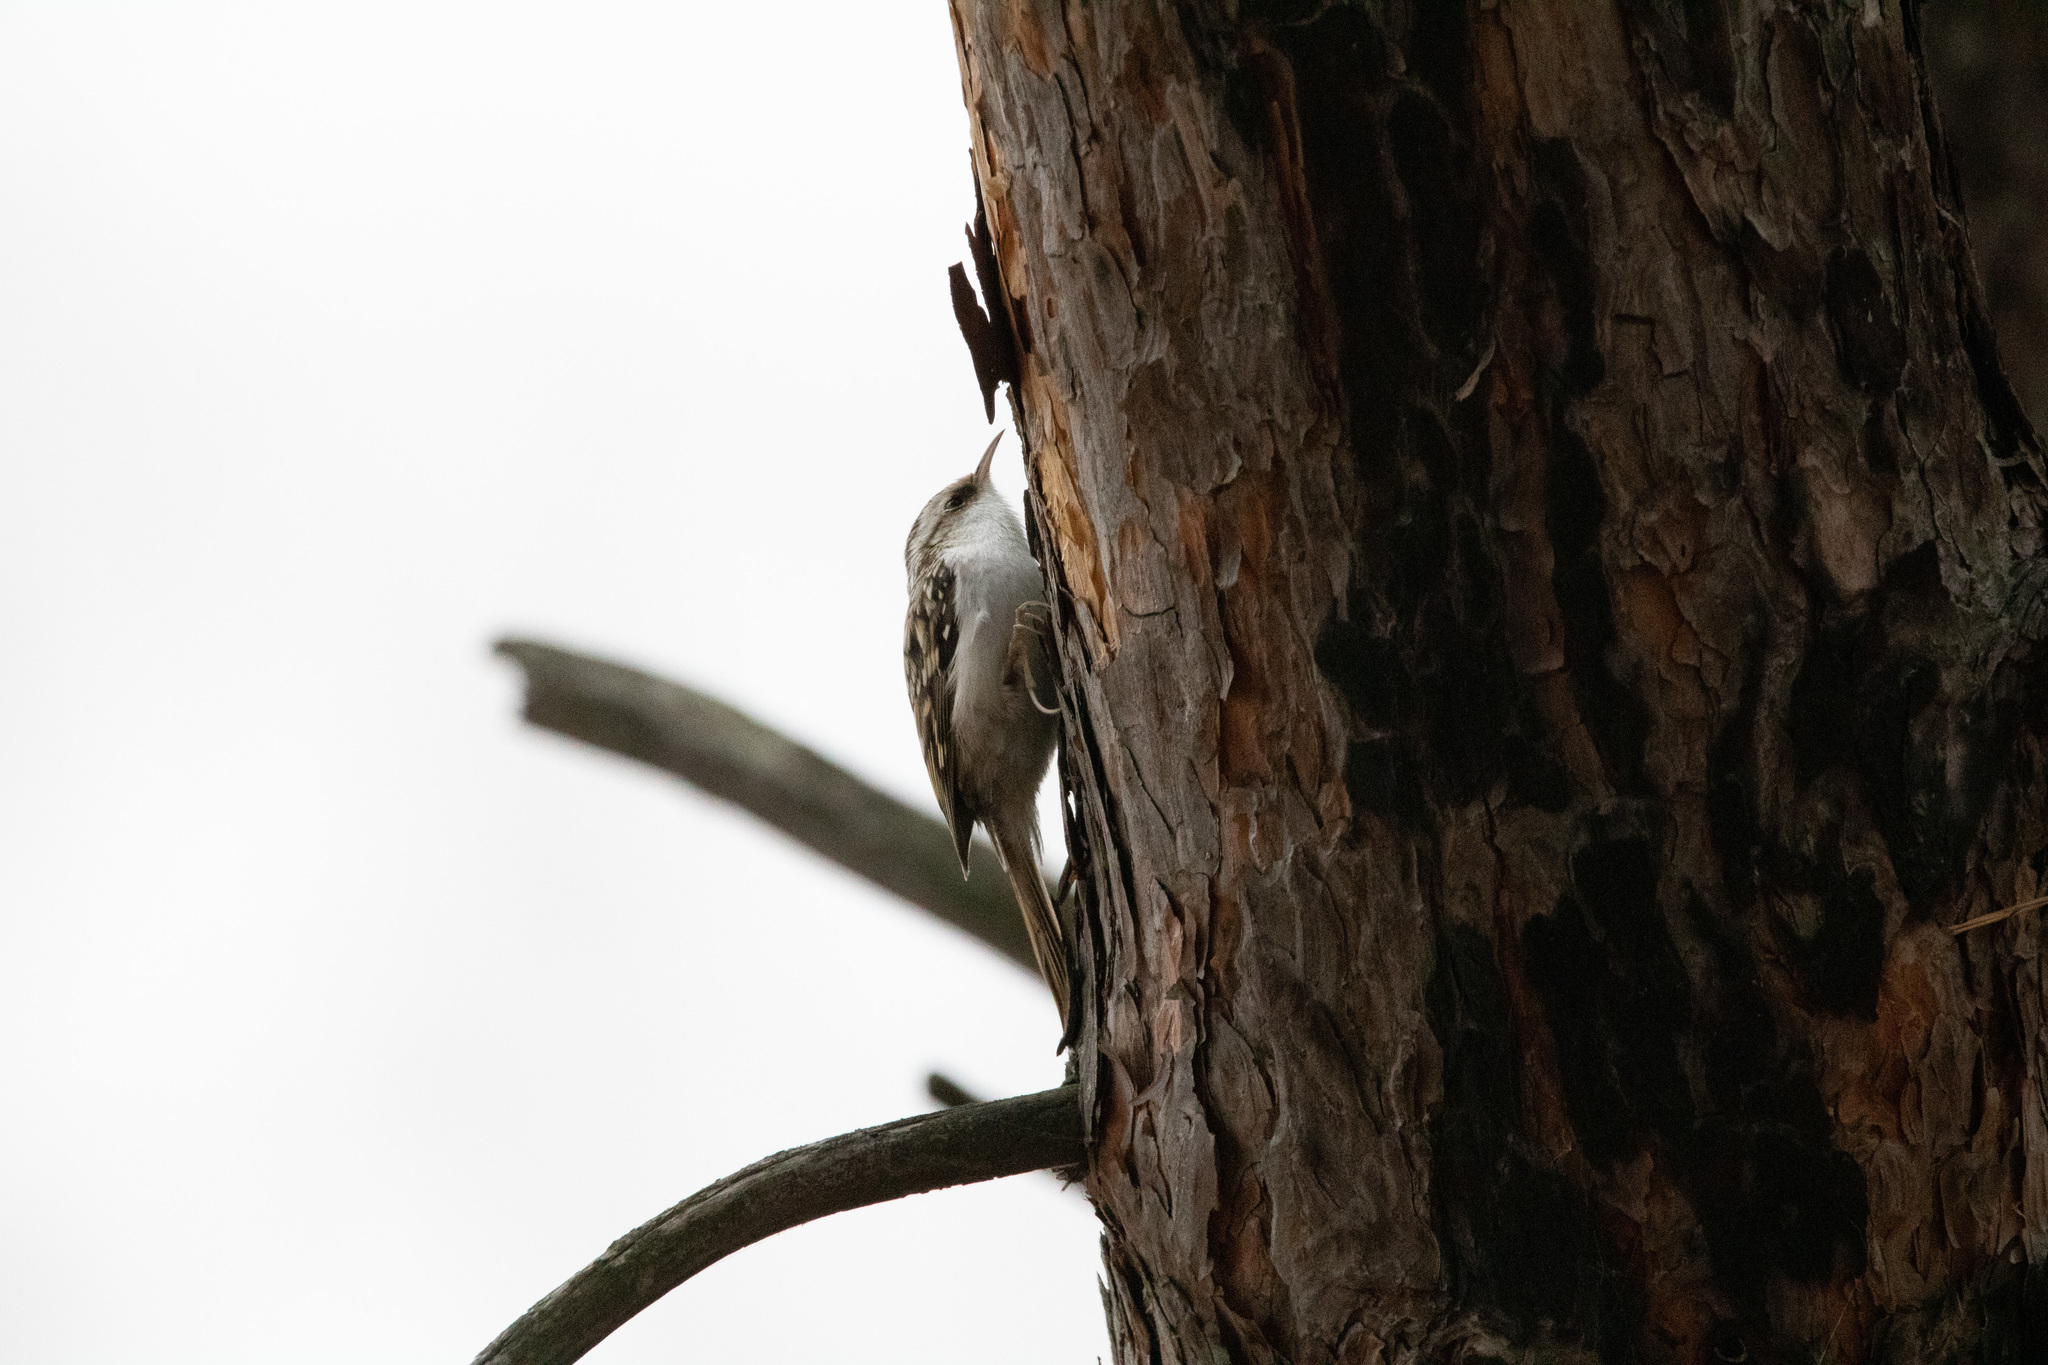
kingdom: Animalia
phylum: Chordata
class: Aves
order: Passeriformes
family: Certhiidae
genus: Certhia
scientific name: Certhia familiaris
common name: Eurasian treecreeper
